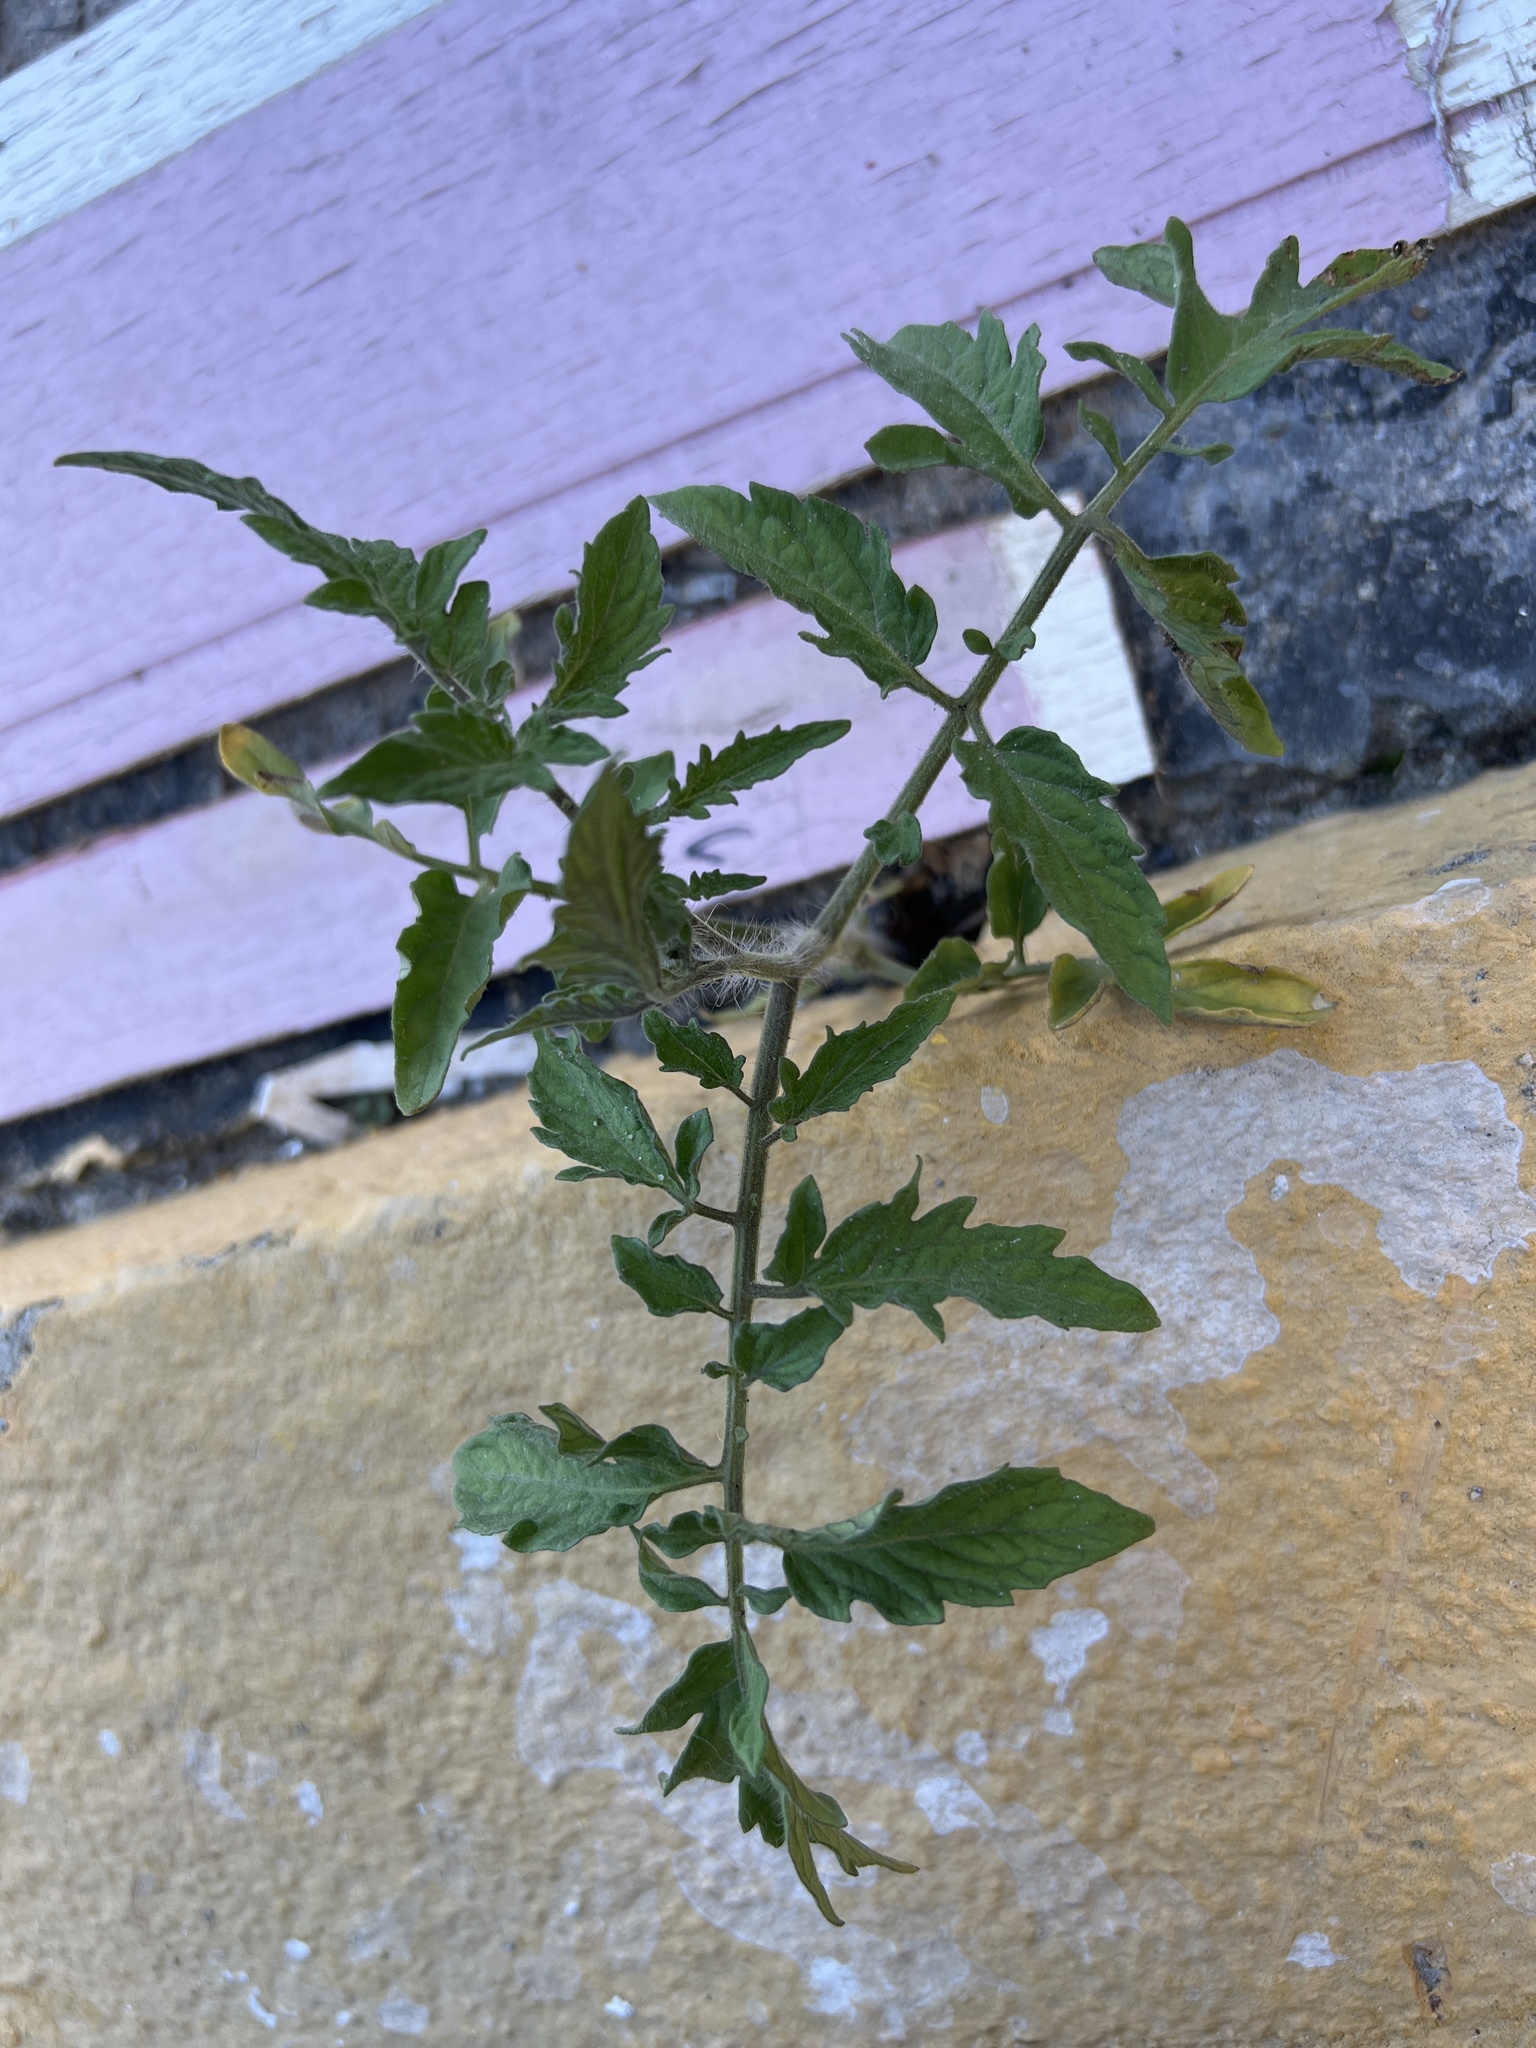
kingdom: Plantae
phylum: Tracheophyta
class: Magnoliopsida
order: Solanales
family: Solanaceae
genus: Solanum
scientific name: Solanum lycopersicum
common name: Garden tomato
